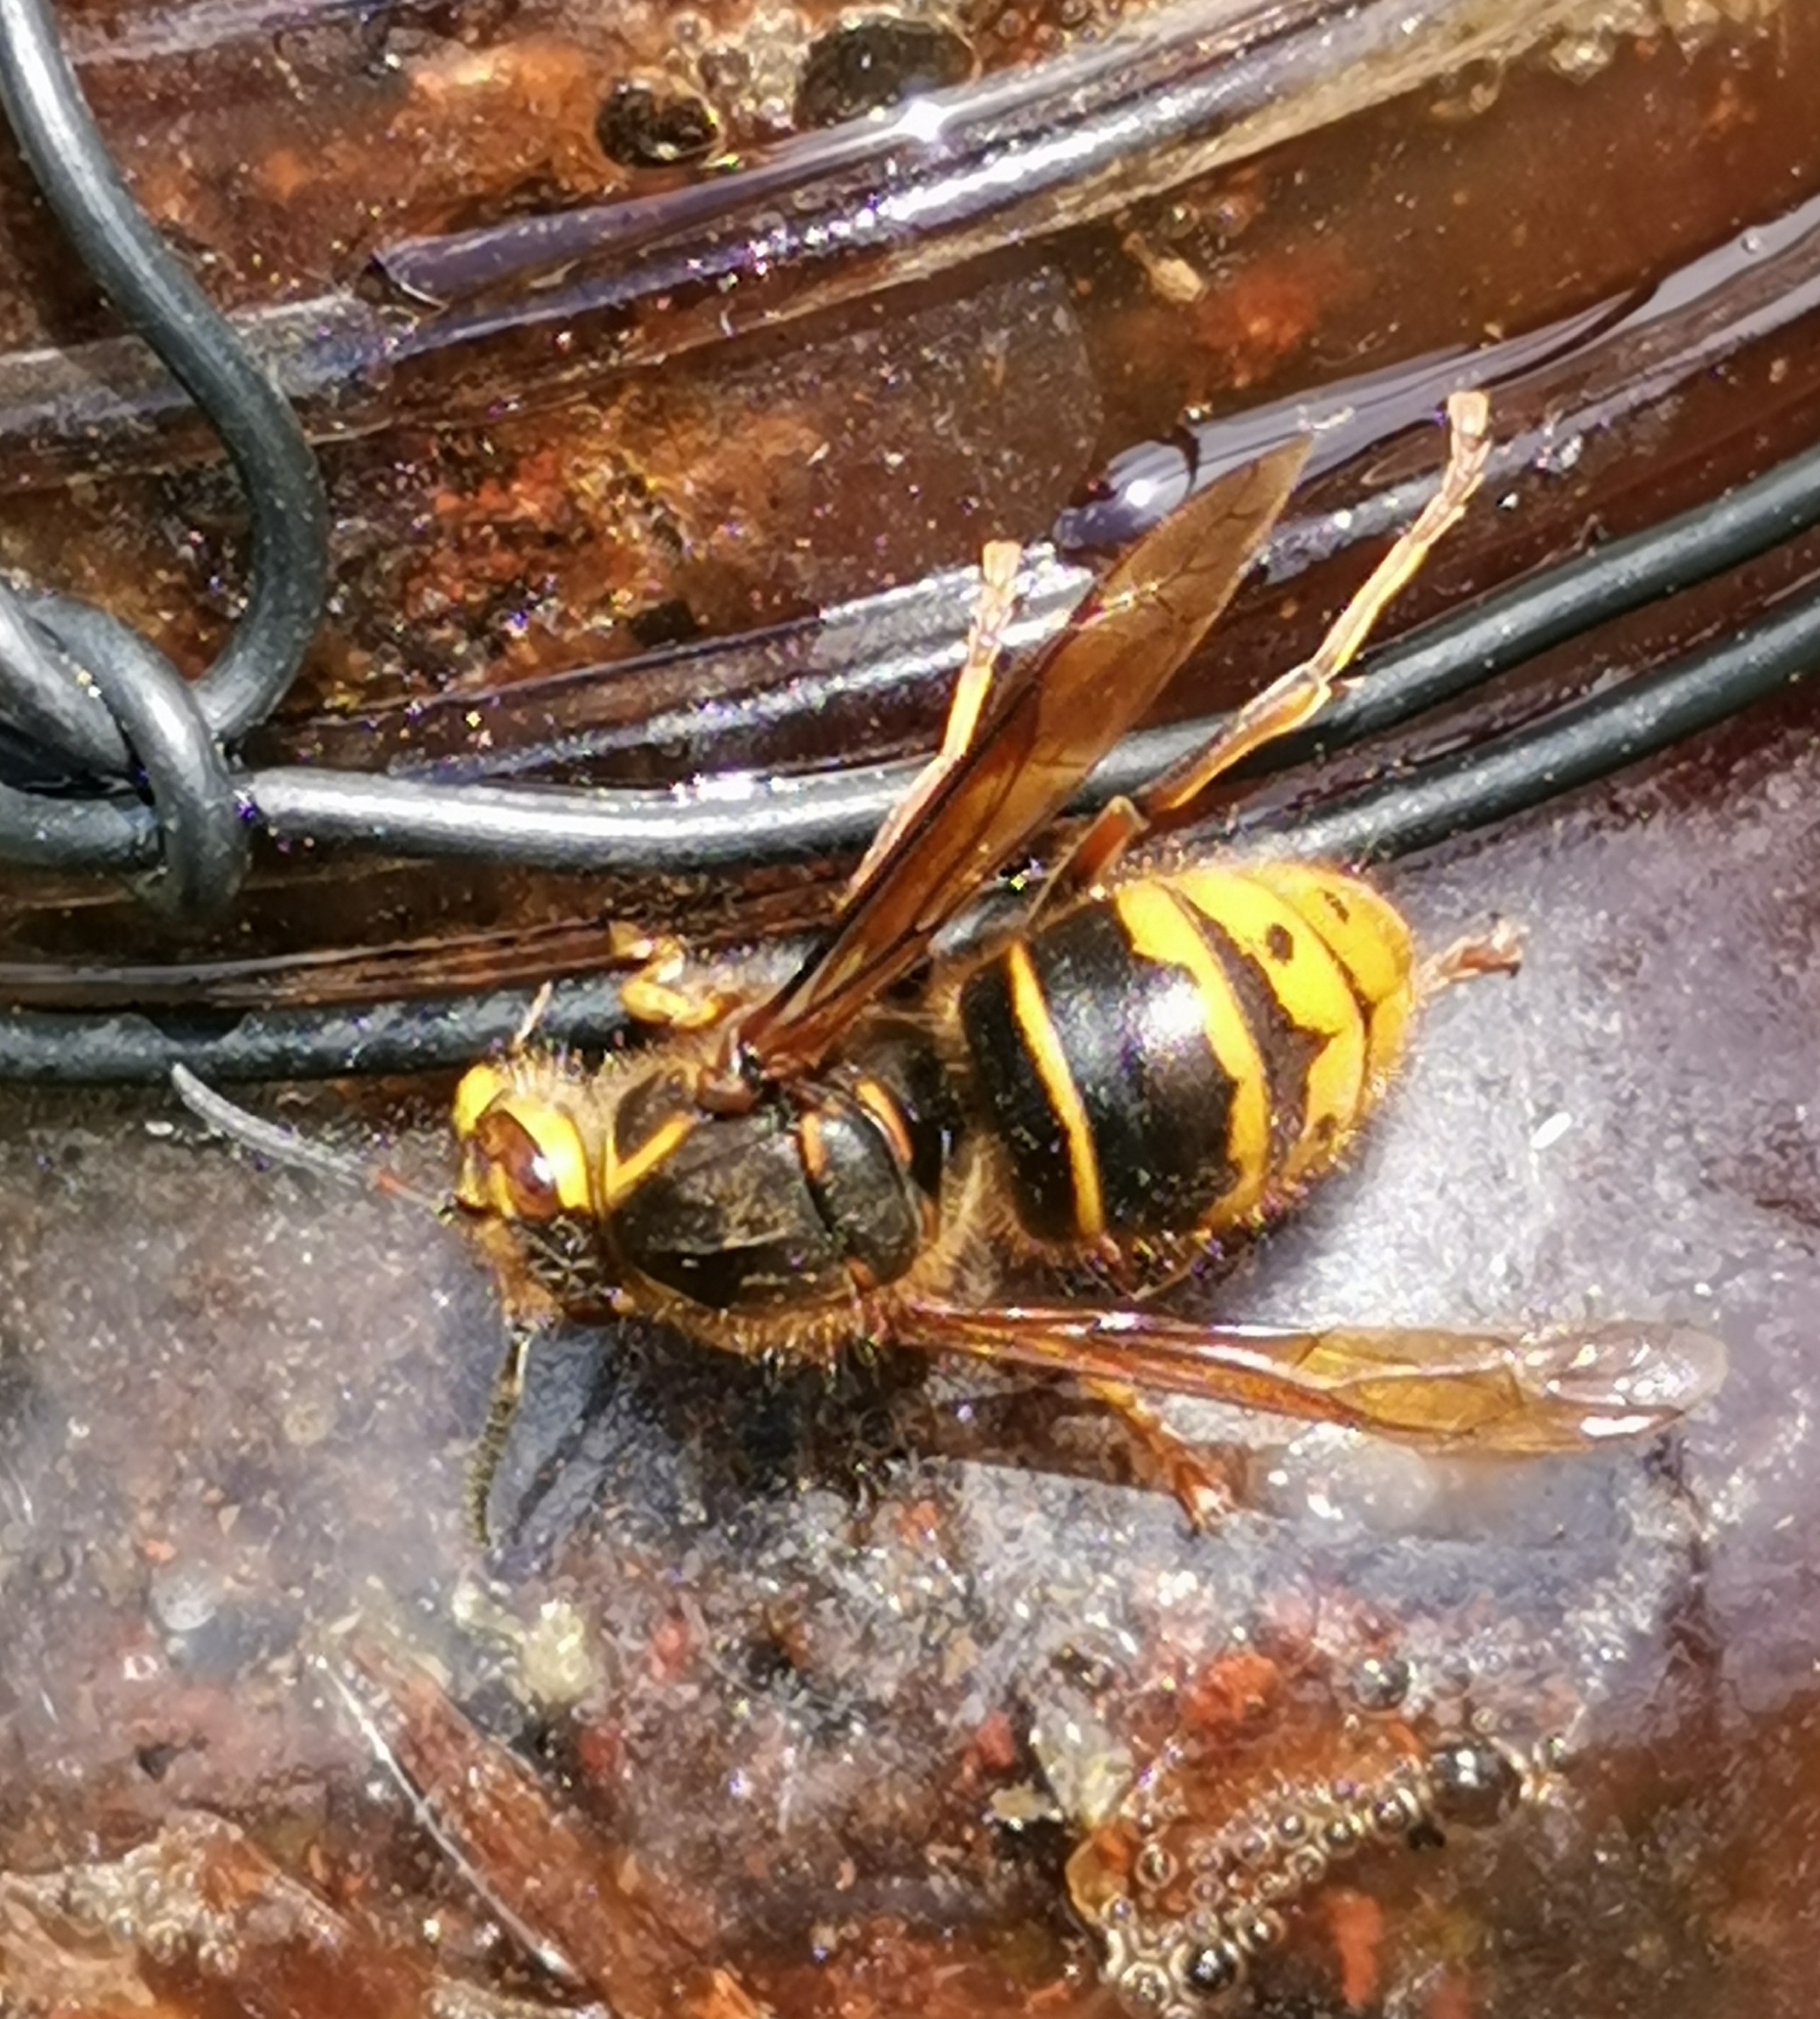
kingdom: Animalia
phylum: Arthropoda
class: Insecta
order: Hymenoptera
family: Vespidae
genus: Dolichovespula
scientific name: Dolichovespula media
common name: Median wasp
